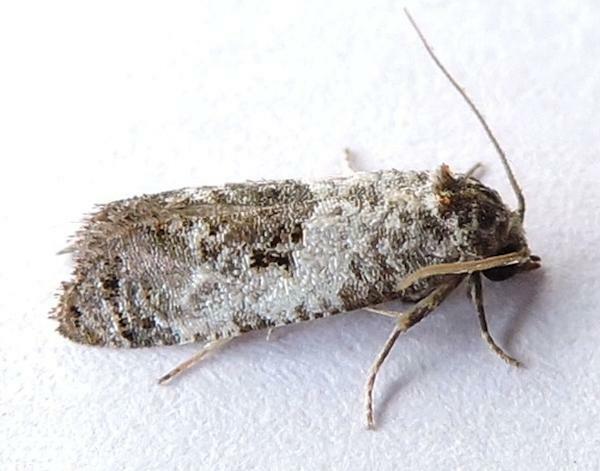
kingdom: Animalia
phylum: Arthropoda
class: Insecta
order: Lepidoptera
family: Tortricidae
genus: Rudenia
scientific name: Rudenia leguminana
